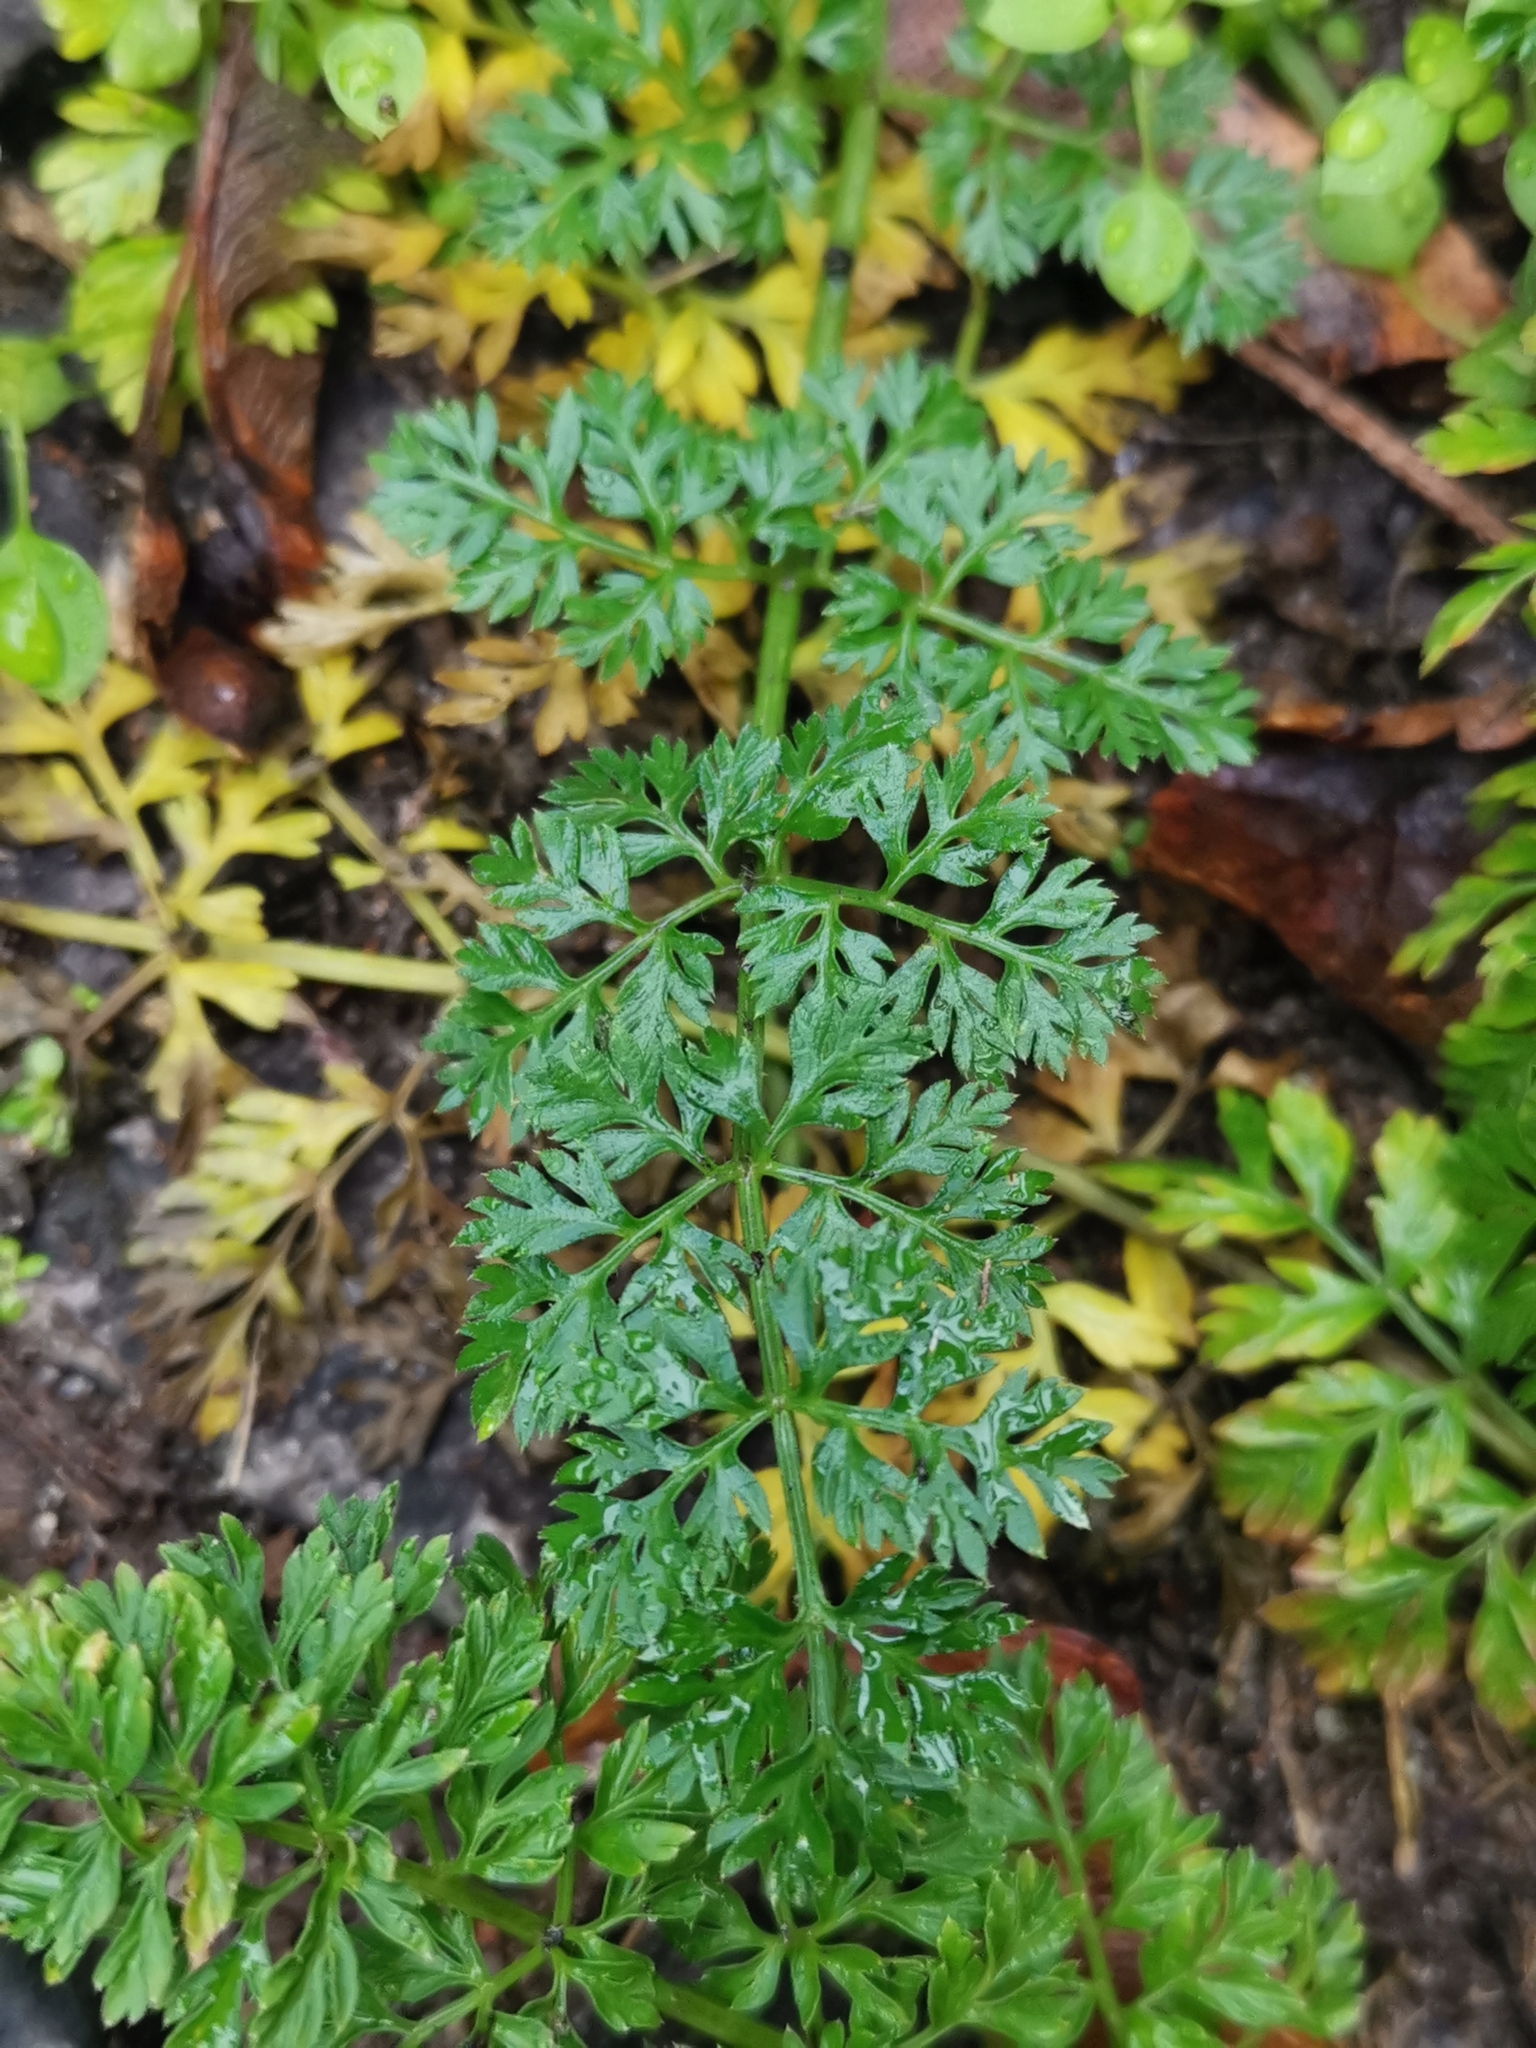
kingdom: Plantae
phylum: Tracheophyta
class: Magnoliopsida
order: Apiales
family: Apiaceae
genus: Daucus
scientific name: Daucus carota
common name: Wild carrot
